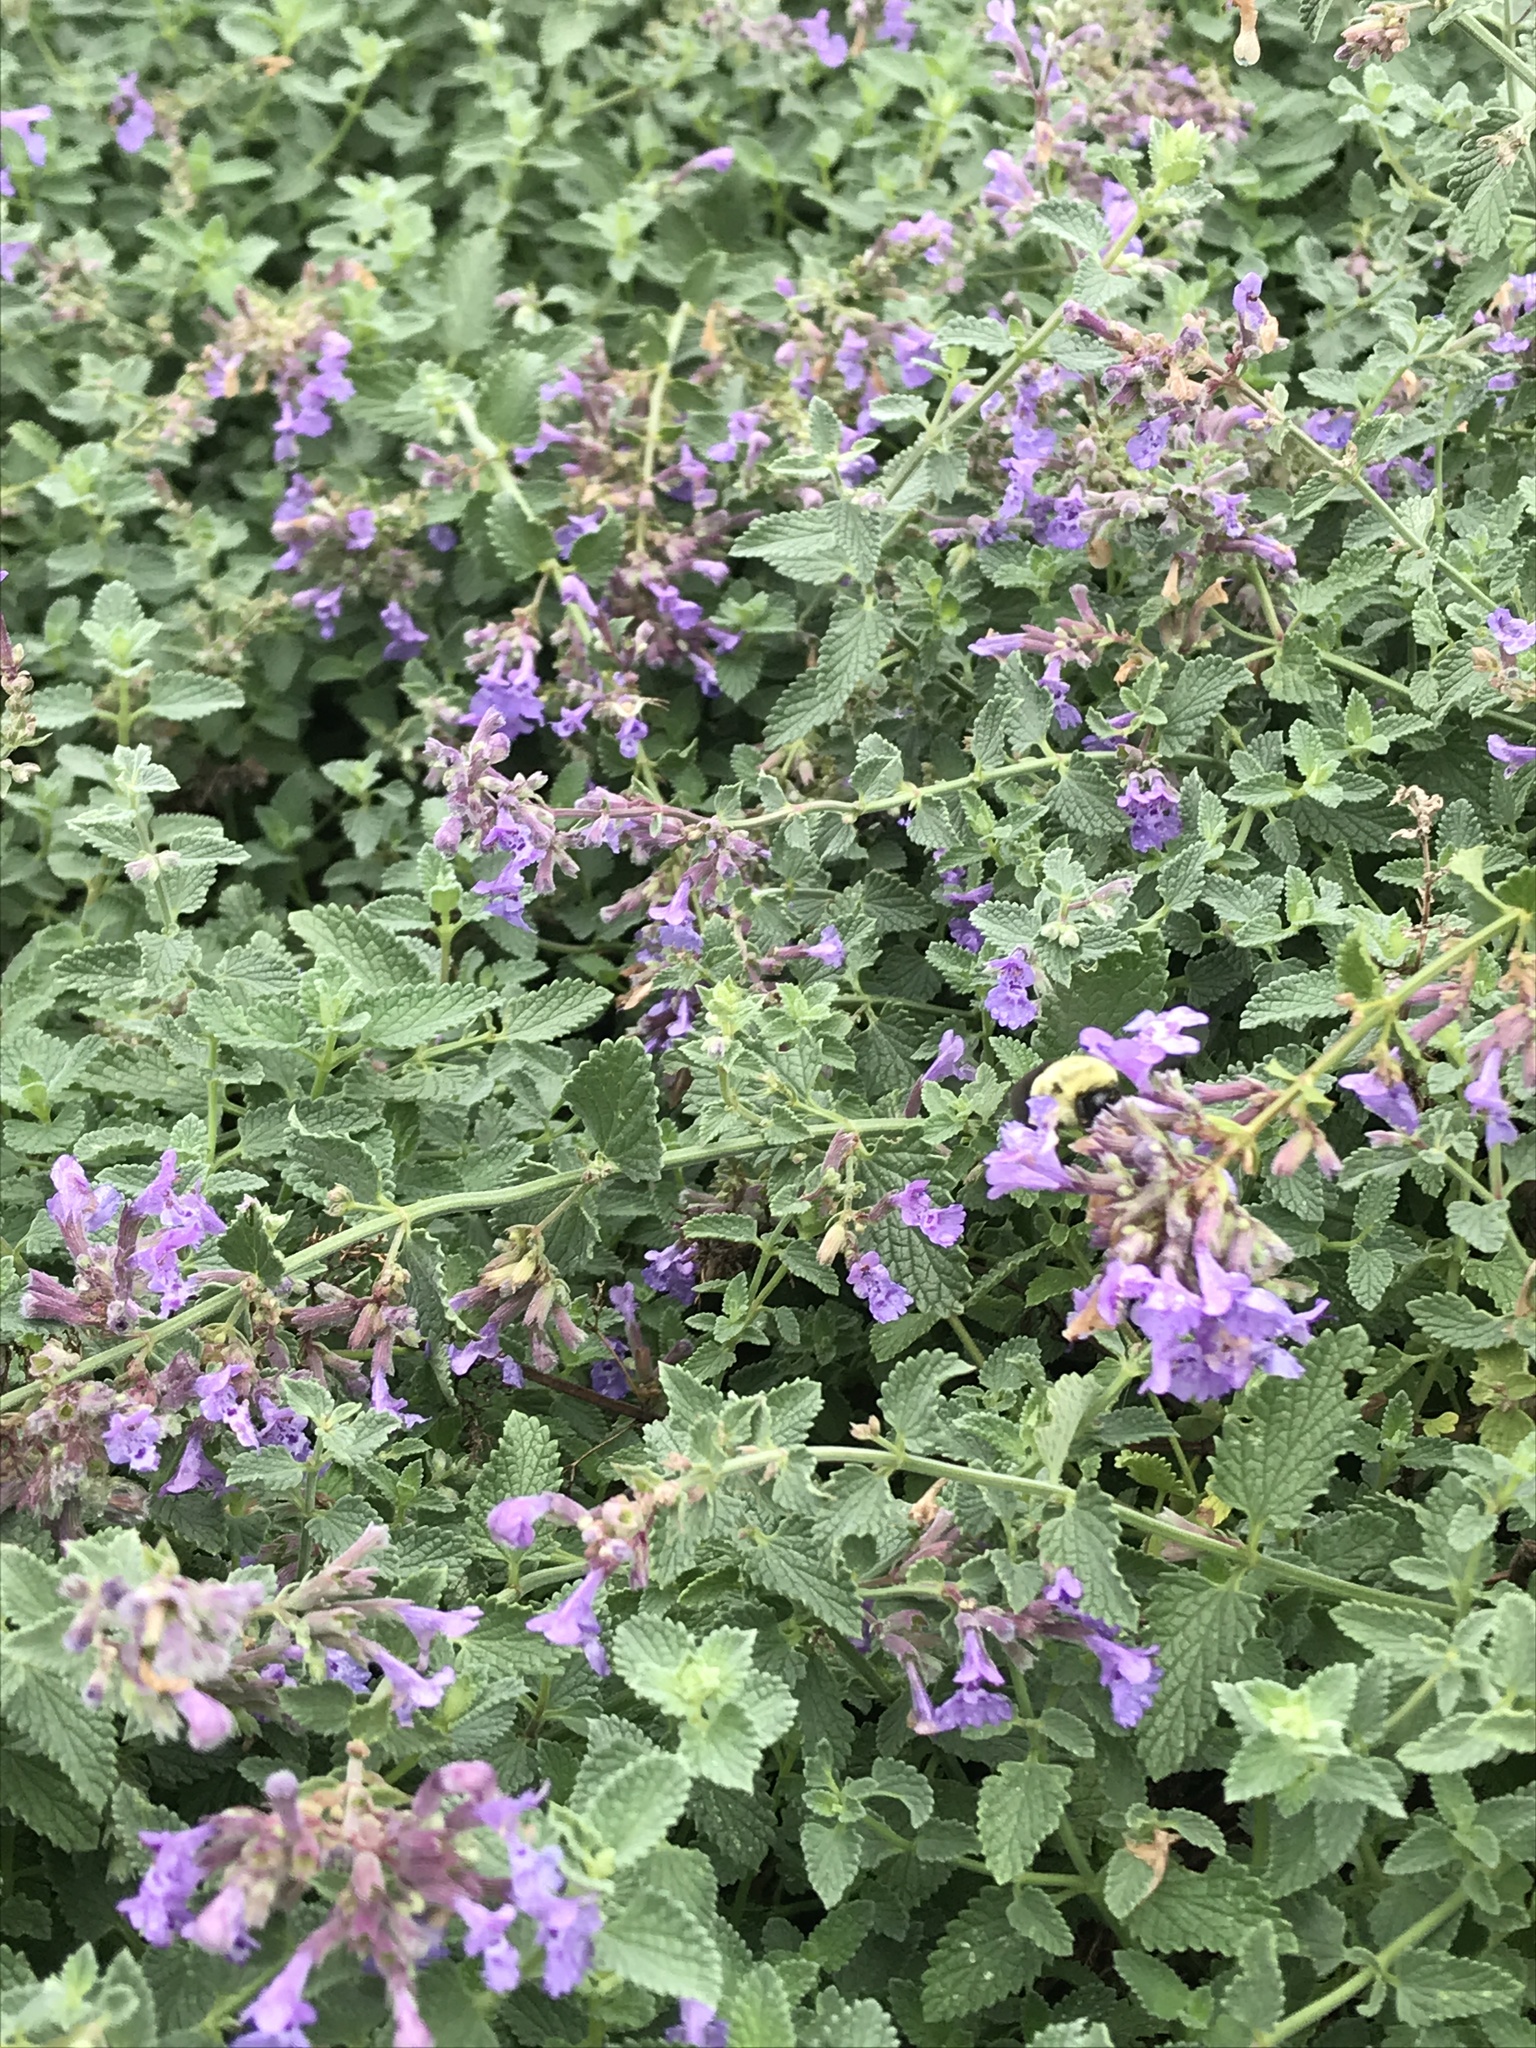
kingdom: Animalia
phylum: Arthropoda
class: Insecta
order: Hymenoptera
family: Apidae
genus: Bombus
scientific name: Bombus impatiens
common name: Common eastern bumble bee
